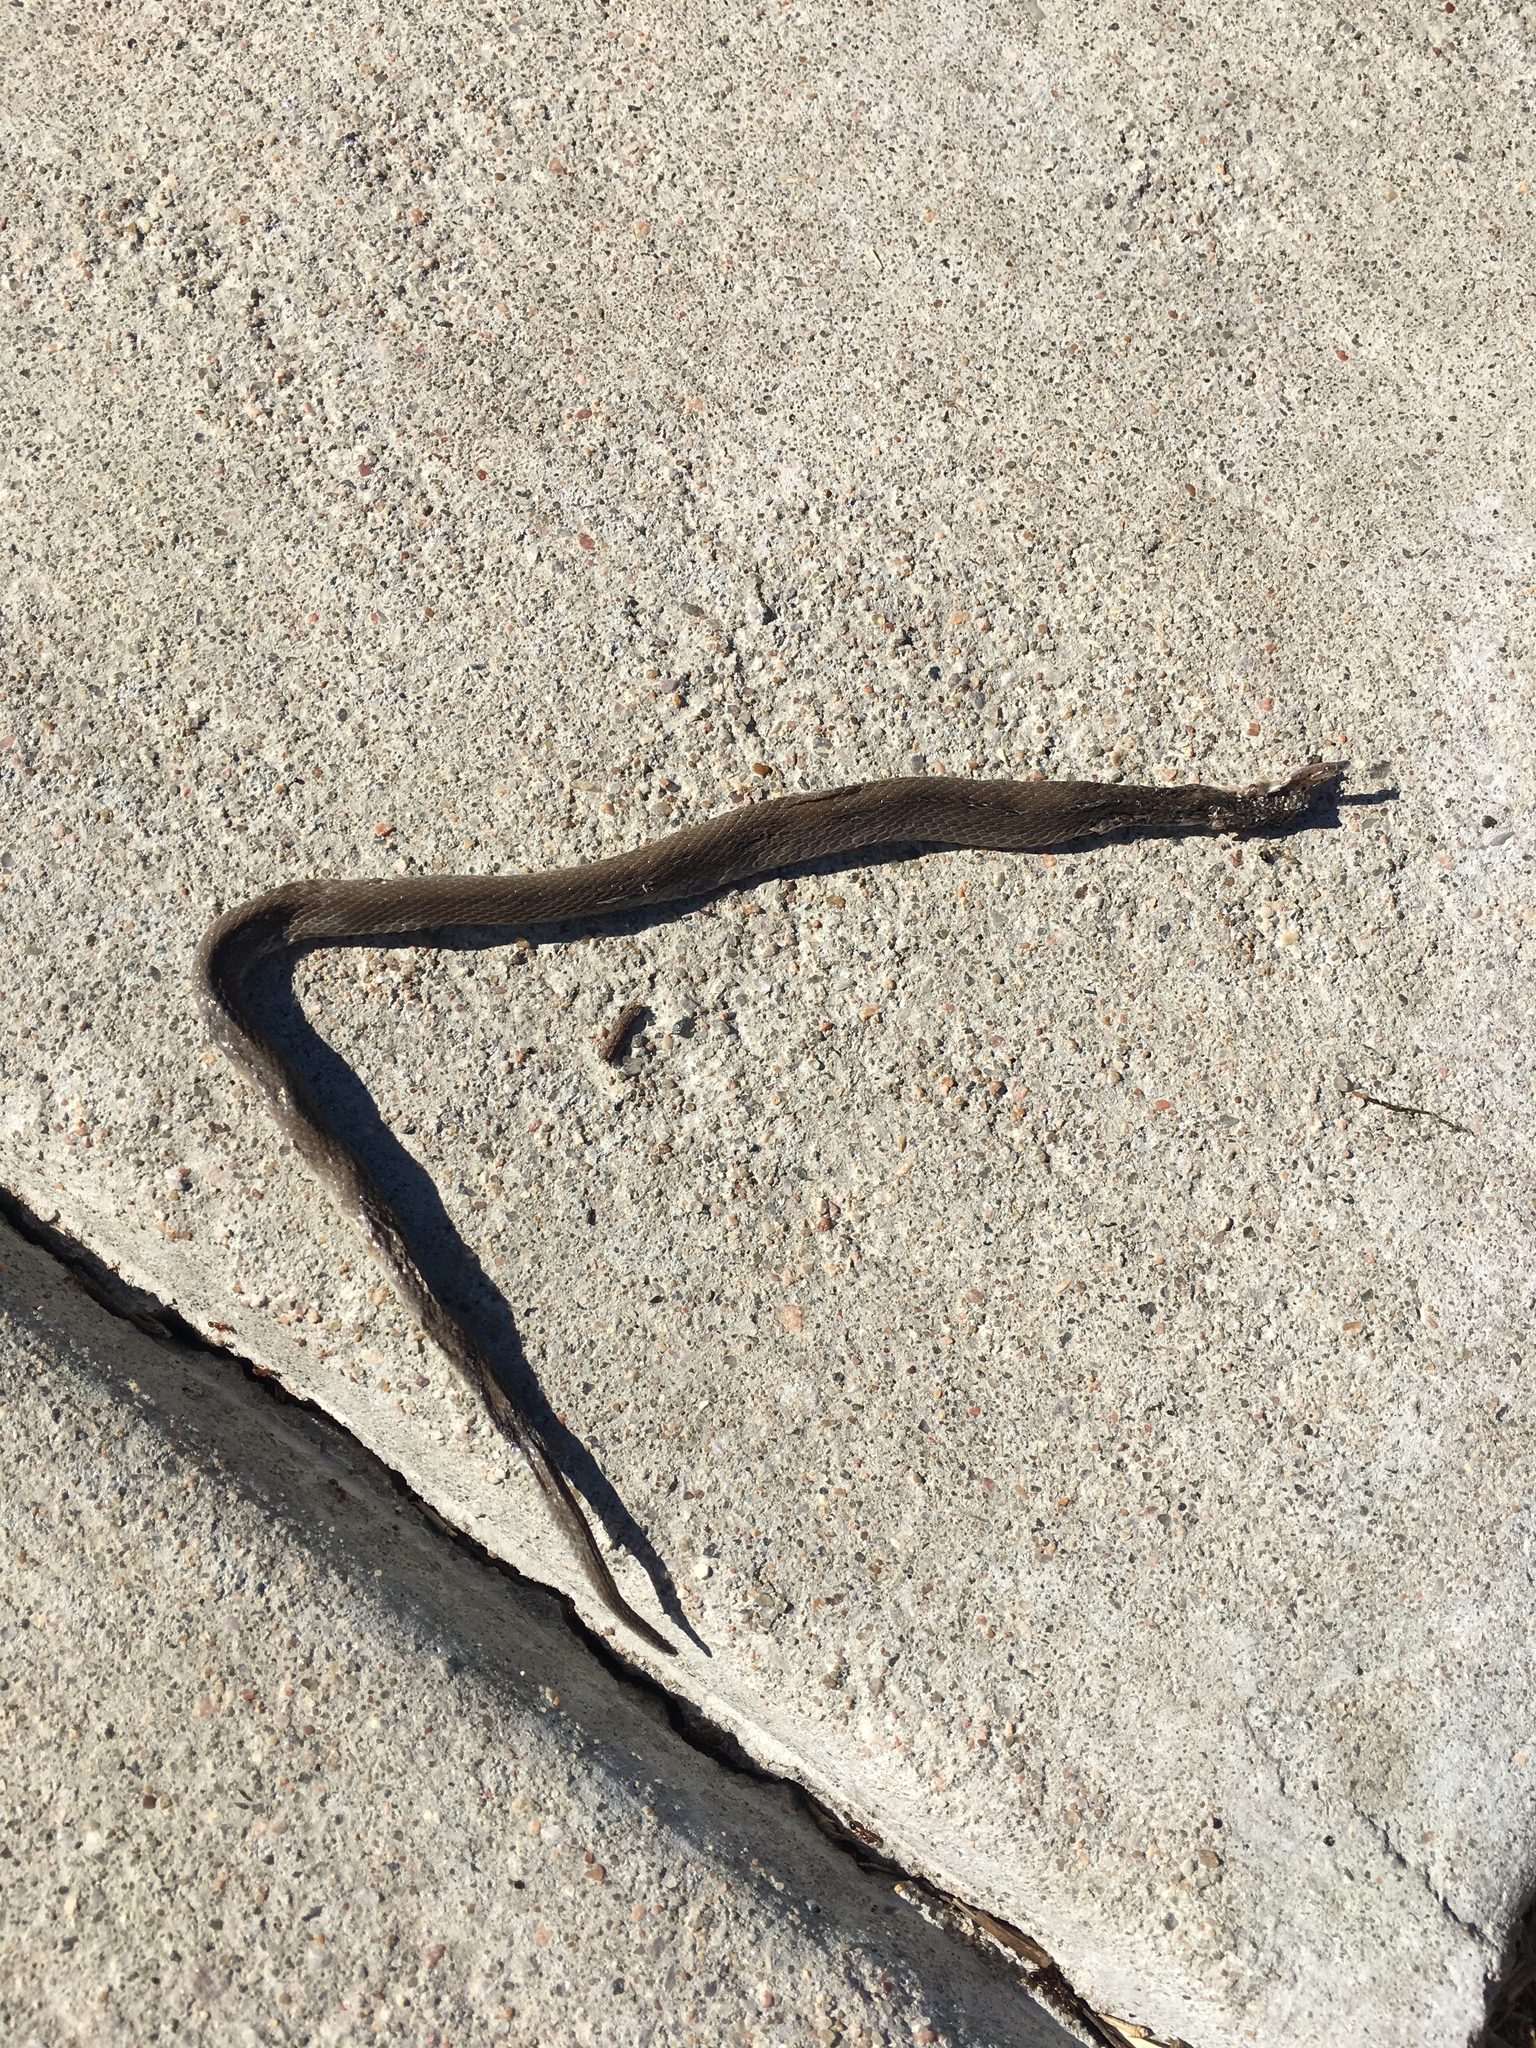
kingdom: Animalia
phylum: Chordata
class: Squamata
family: Colubridae
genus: Haldea
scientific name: Haldea striatula
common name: Rough earth snake
